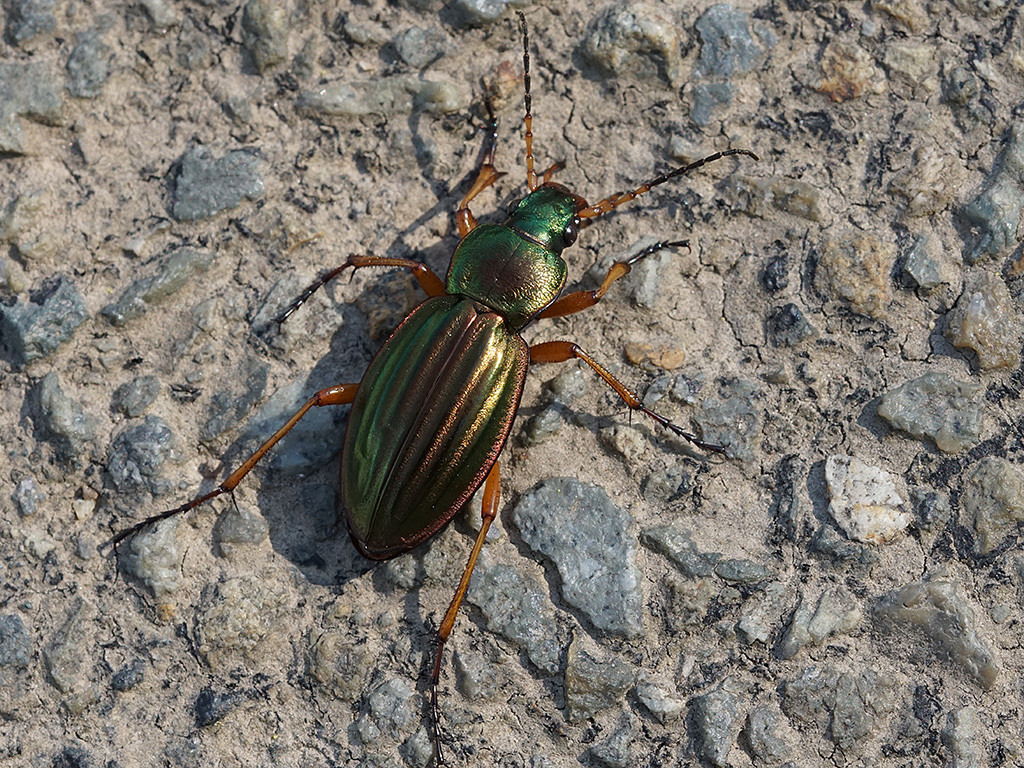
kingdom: Animalia
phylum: Arthropoda
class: Insecta
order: Coleoptera
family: Carabidae
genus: Carabus
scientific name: Carabus auratus
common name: Golden ground beetle
